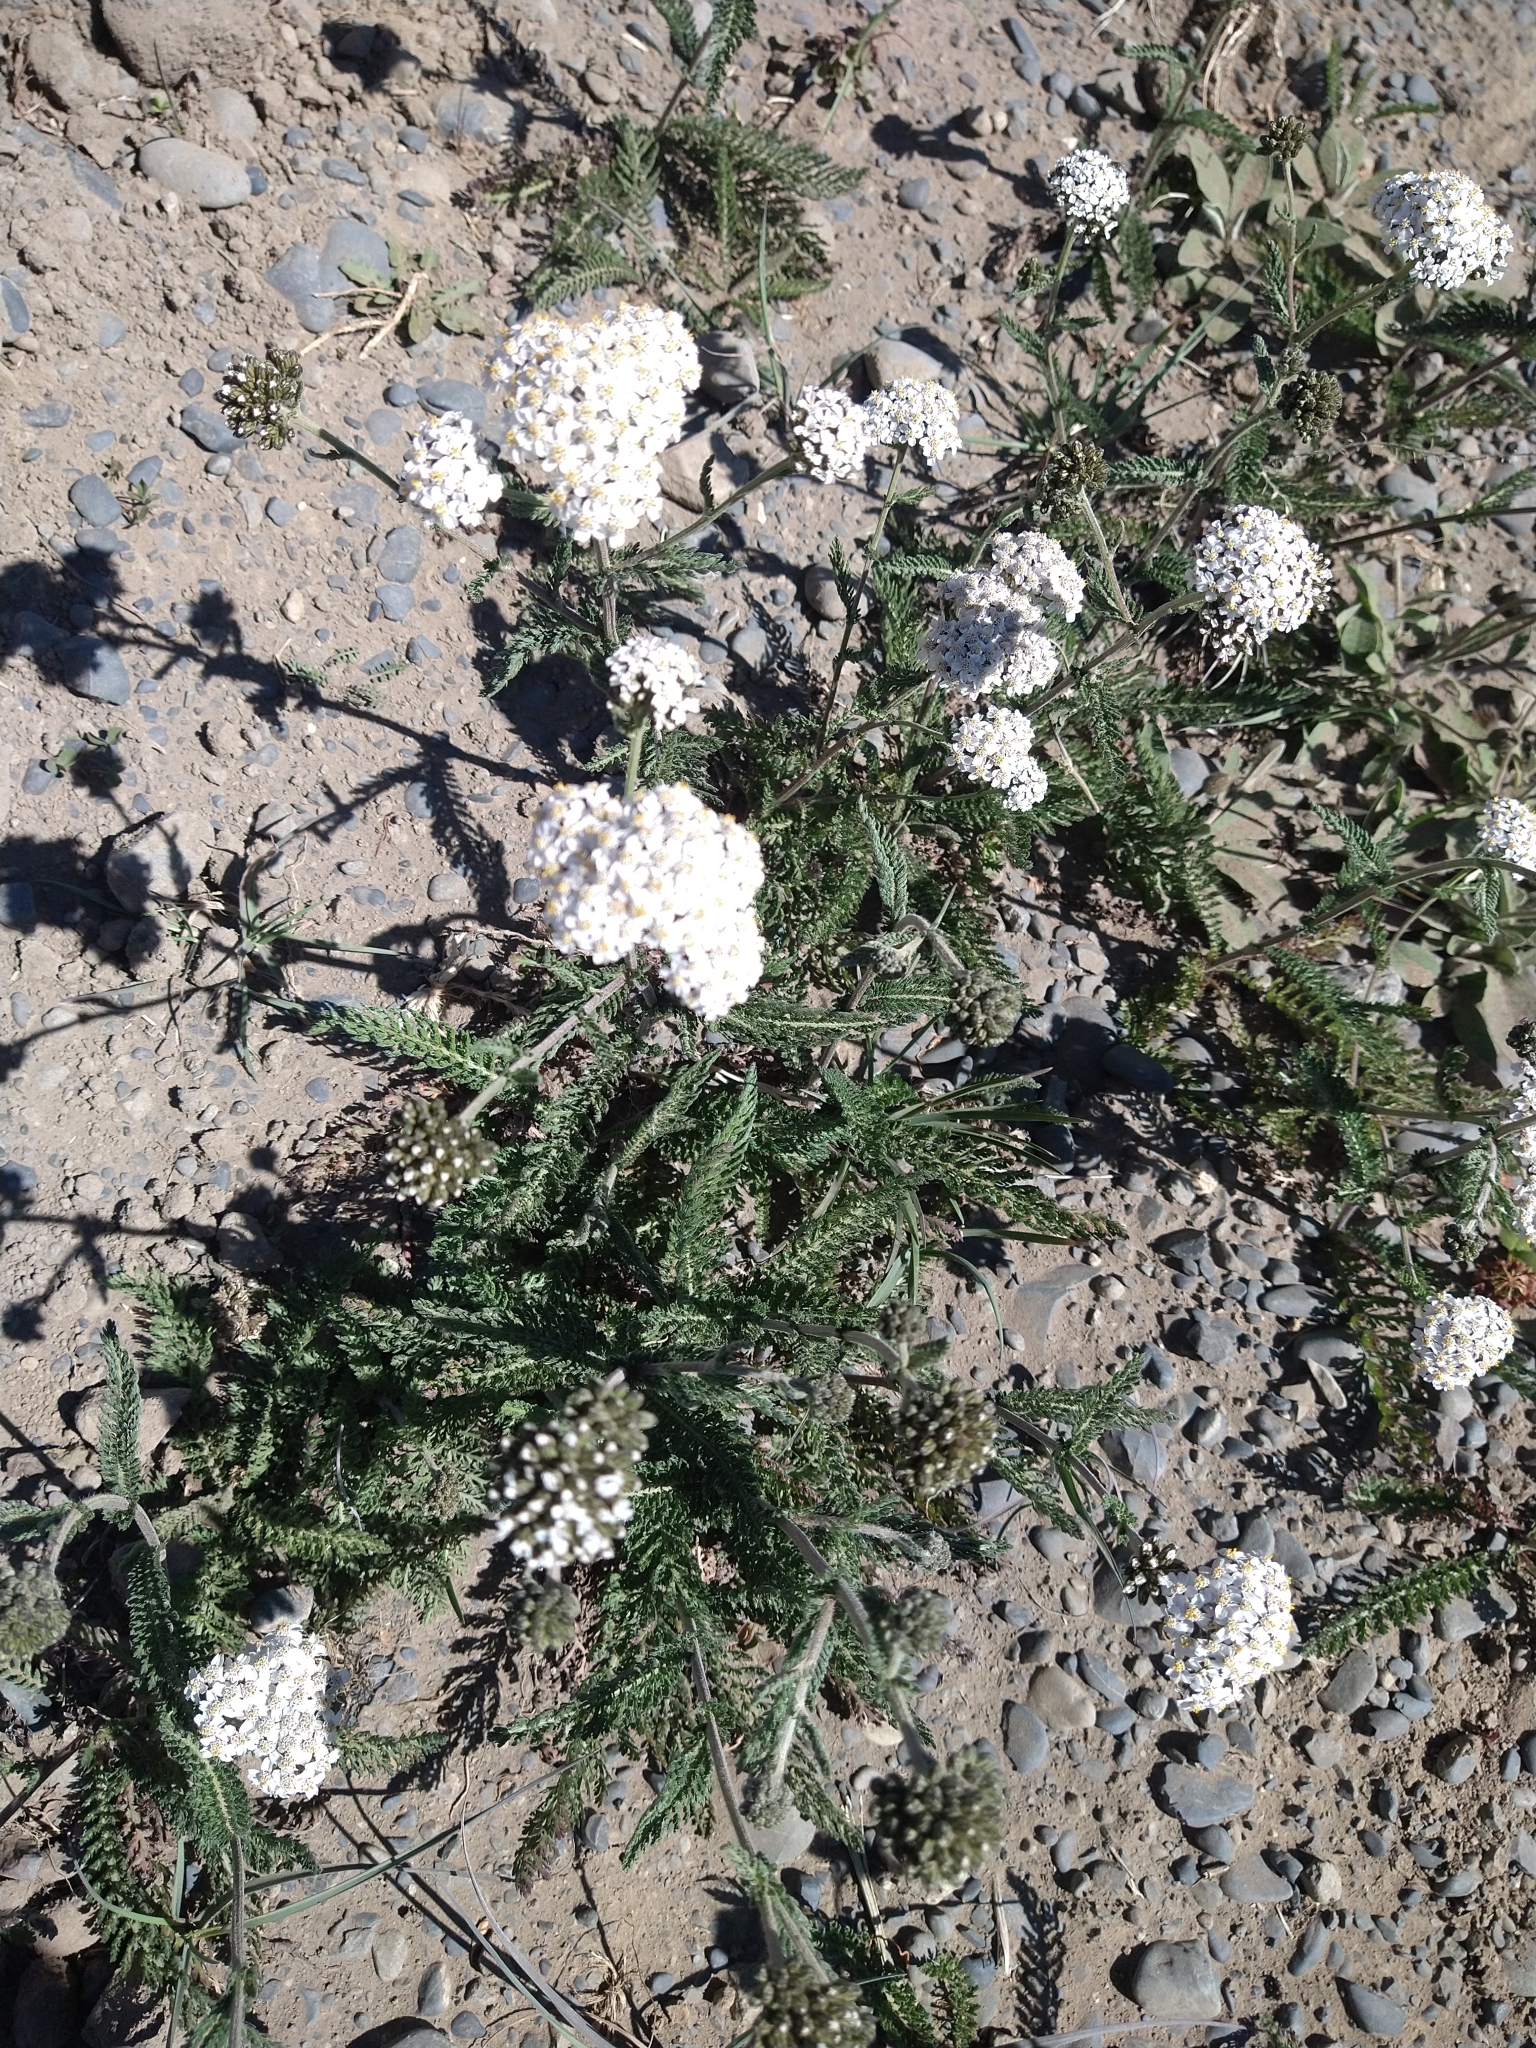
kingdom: Plantae
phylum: Tracheophyta
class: Magnoliopsida
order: Asterales
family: Asteraceae
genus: Achillea
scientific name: Achillea millefolium
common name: Yarrow
